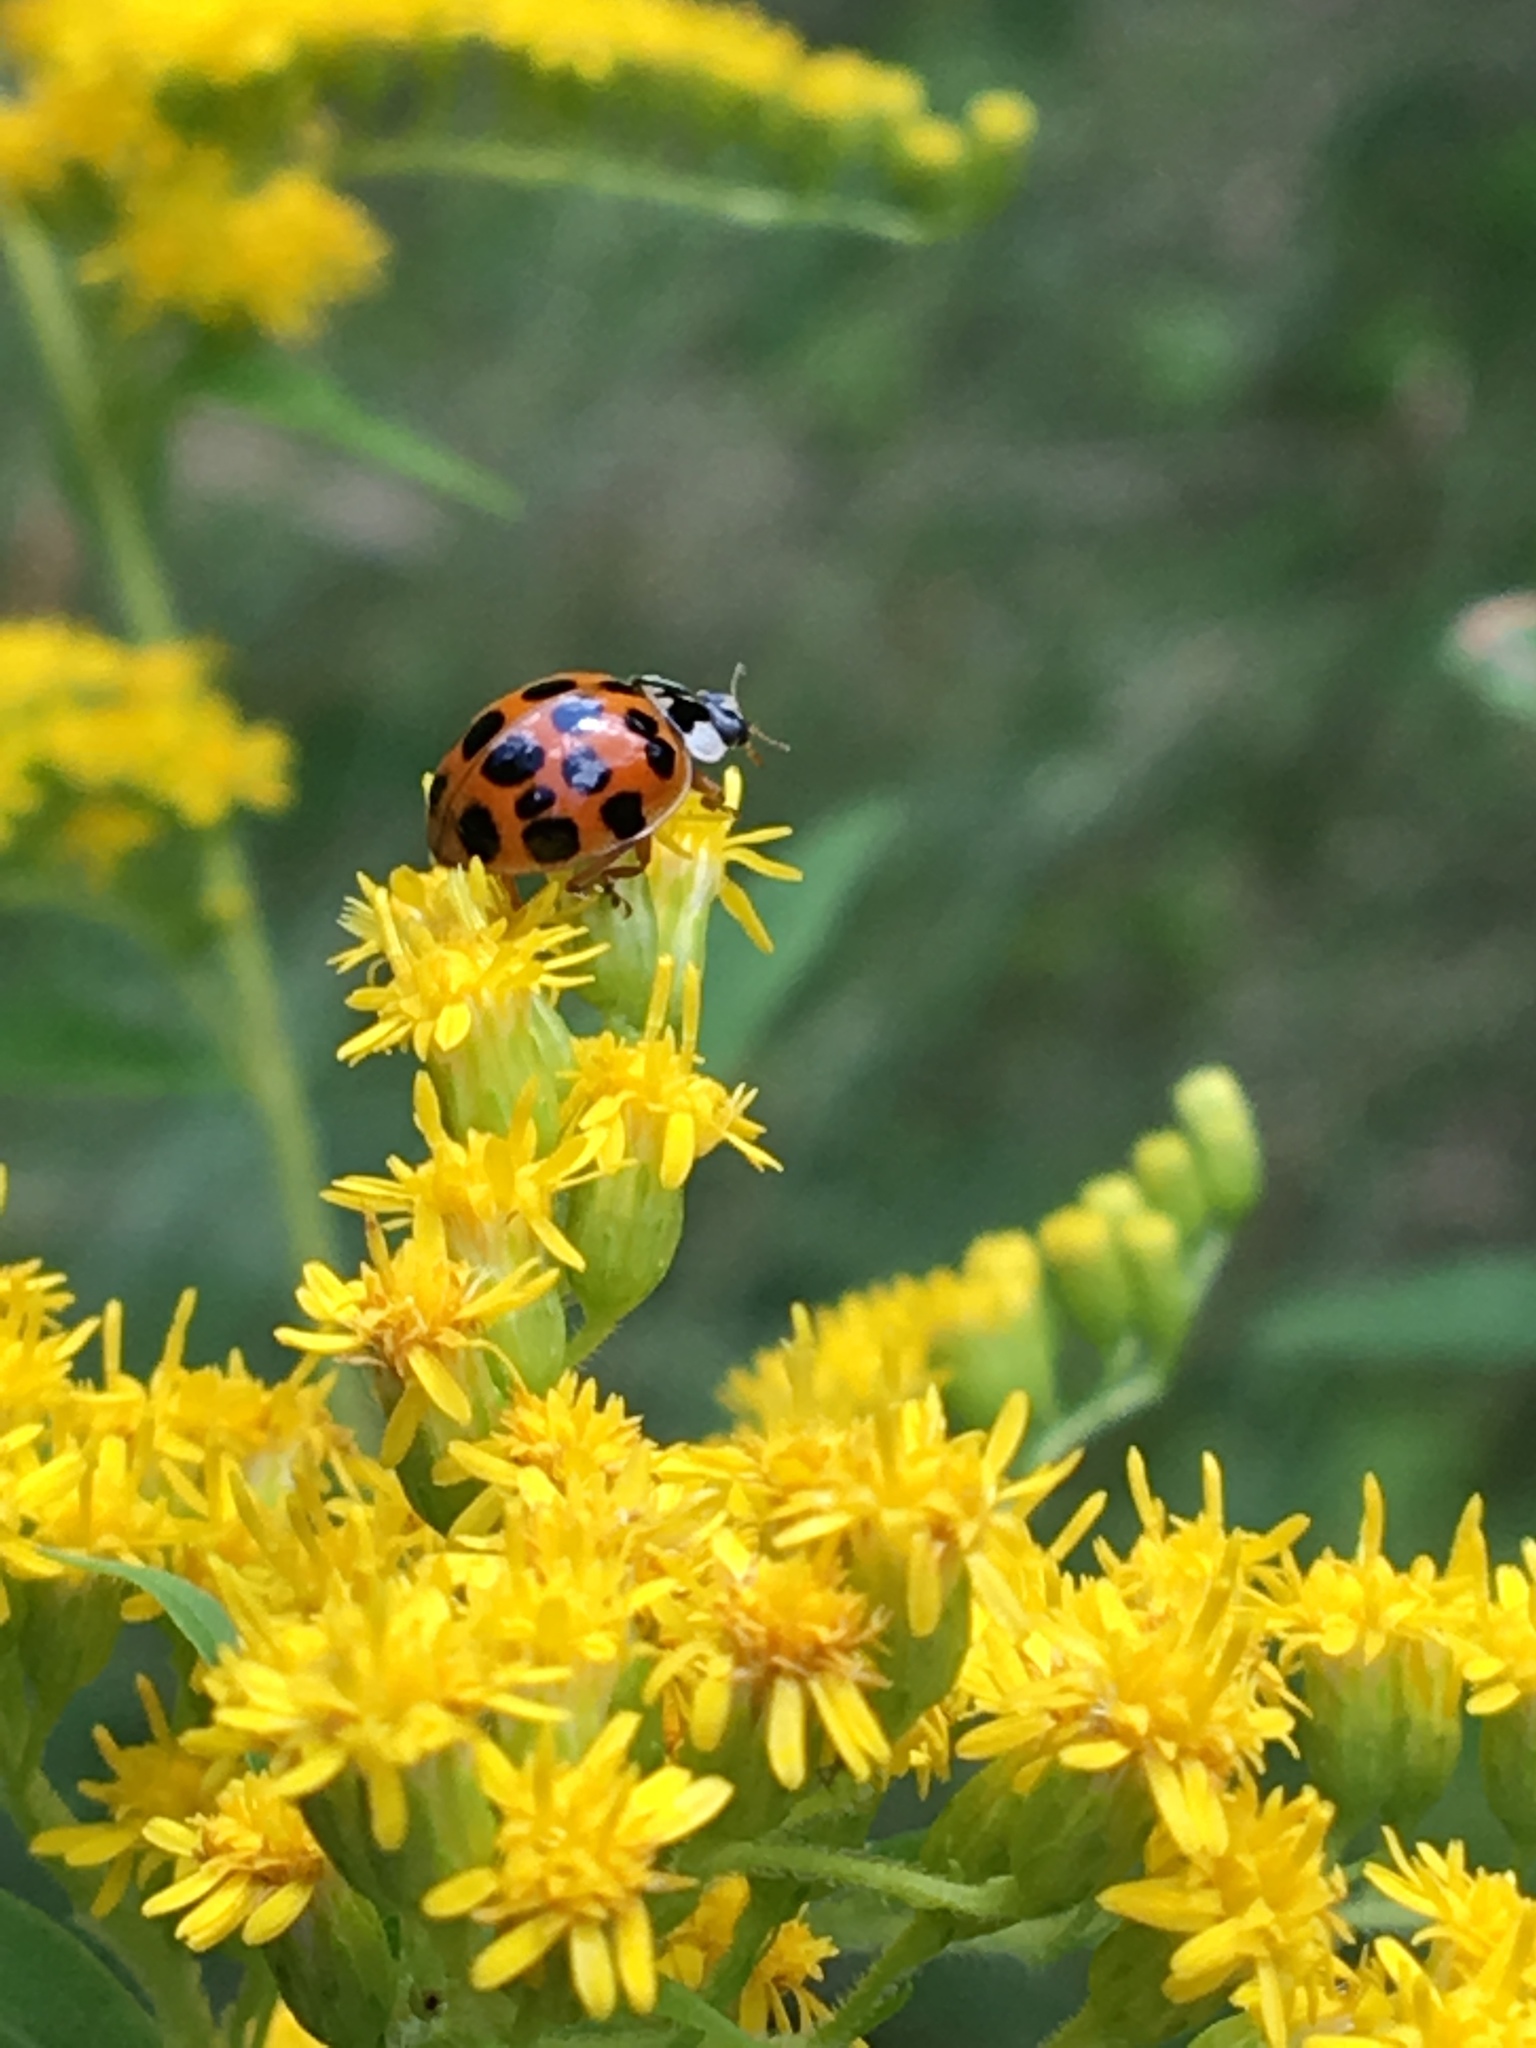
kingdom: Animalia
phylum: Arthropoda
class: Insecta
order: Coleoptera
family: Coccinellidae
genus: Harmonia
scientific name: Harmonia axyridis
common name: Harlequin ladybird
